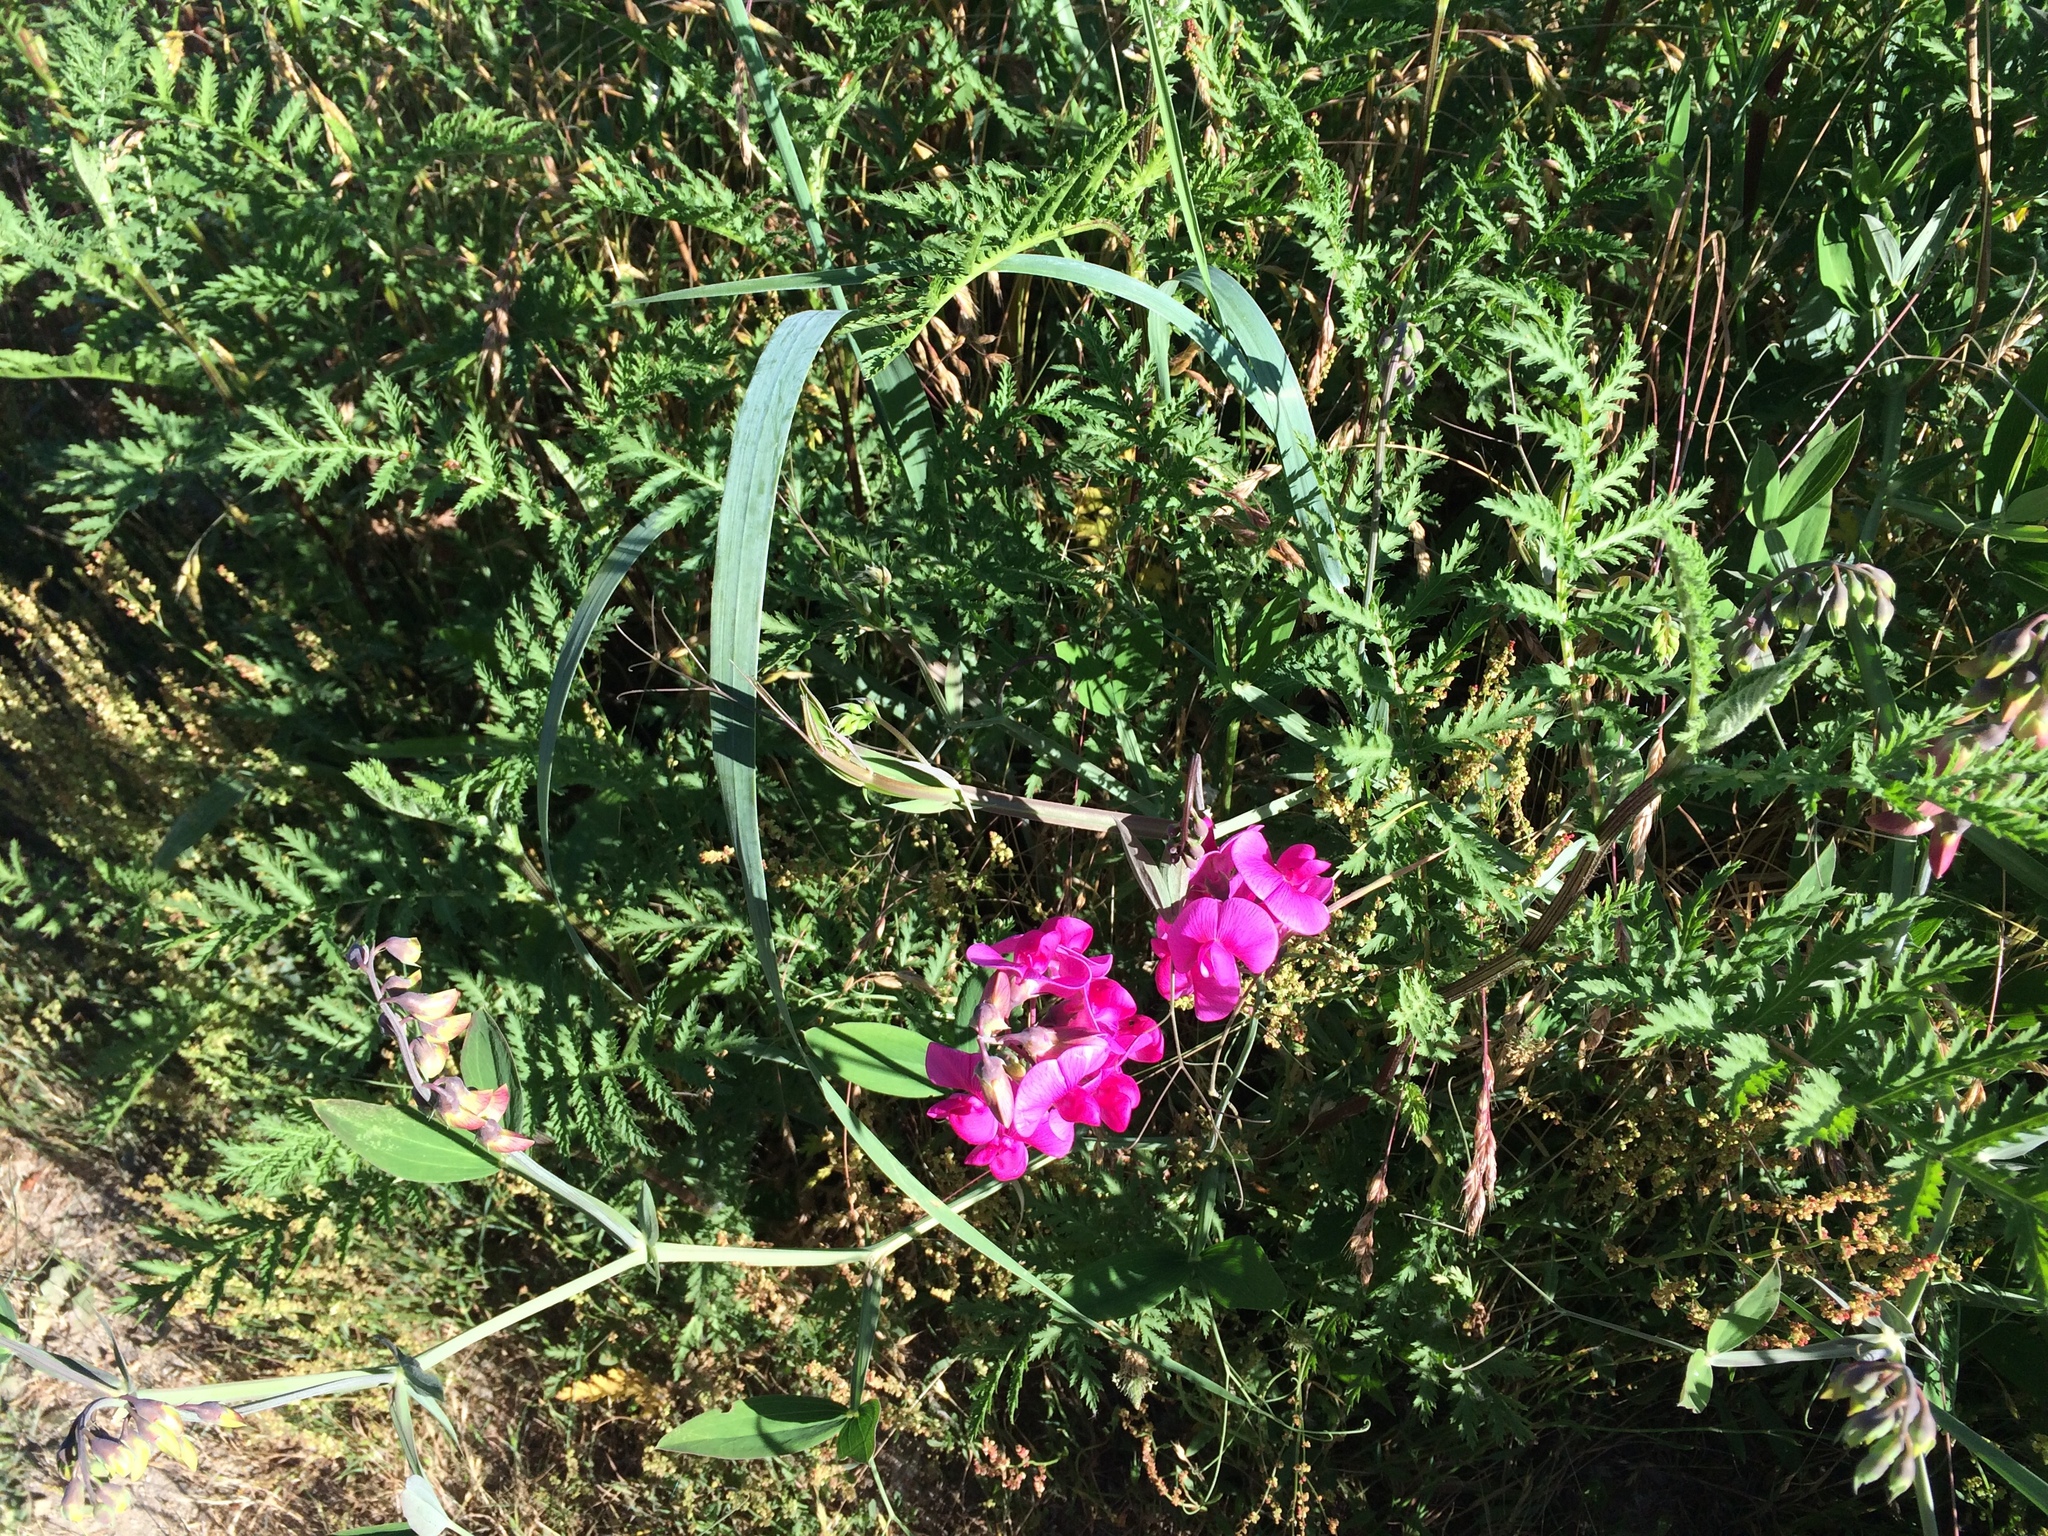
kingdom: Plantae
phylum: Tracheophyta
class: Magnoliopsida
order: Fabales
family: Fabaceae
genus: Lathyrus
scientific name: Lathyrus latifolius
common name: Perennial pea
